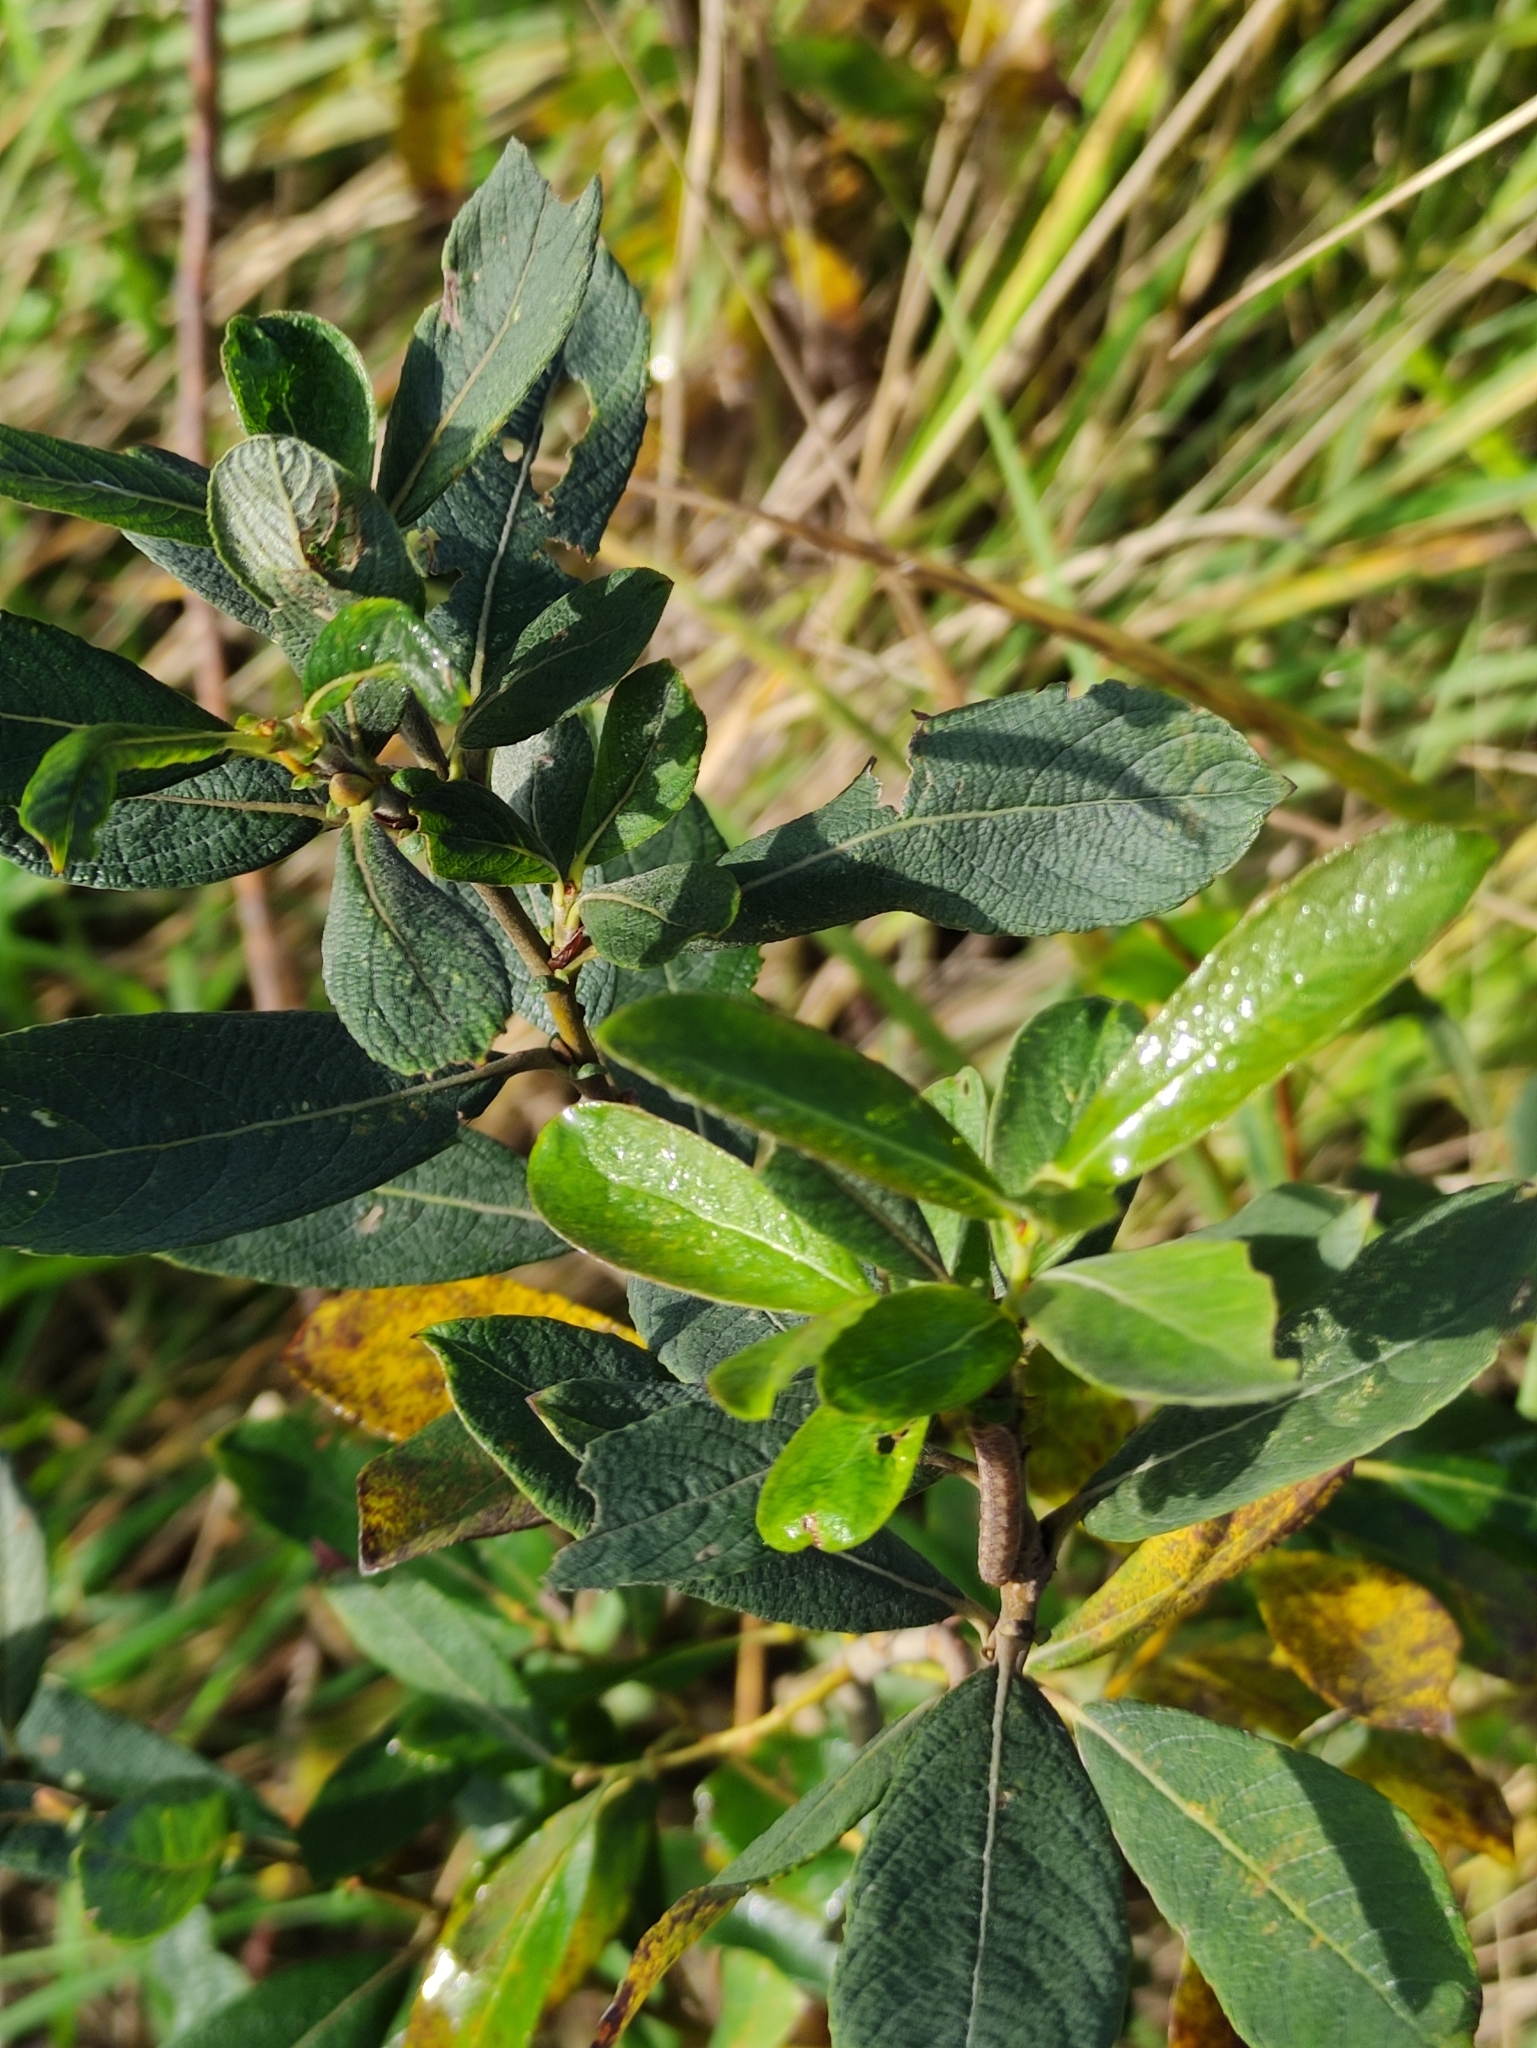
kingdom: Plantae
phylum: Tracheophyta
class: Magnoliopsida
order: Malpighiales
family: Salicaceae
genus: Salix
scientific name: Salix myrsinifolia
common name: Dark-leaved willow
